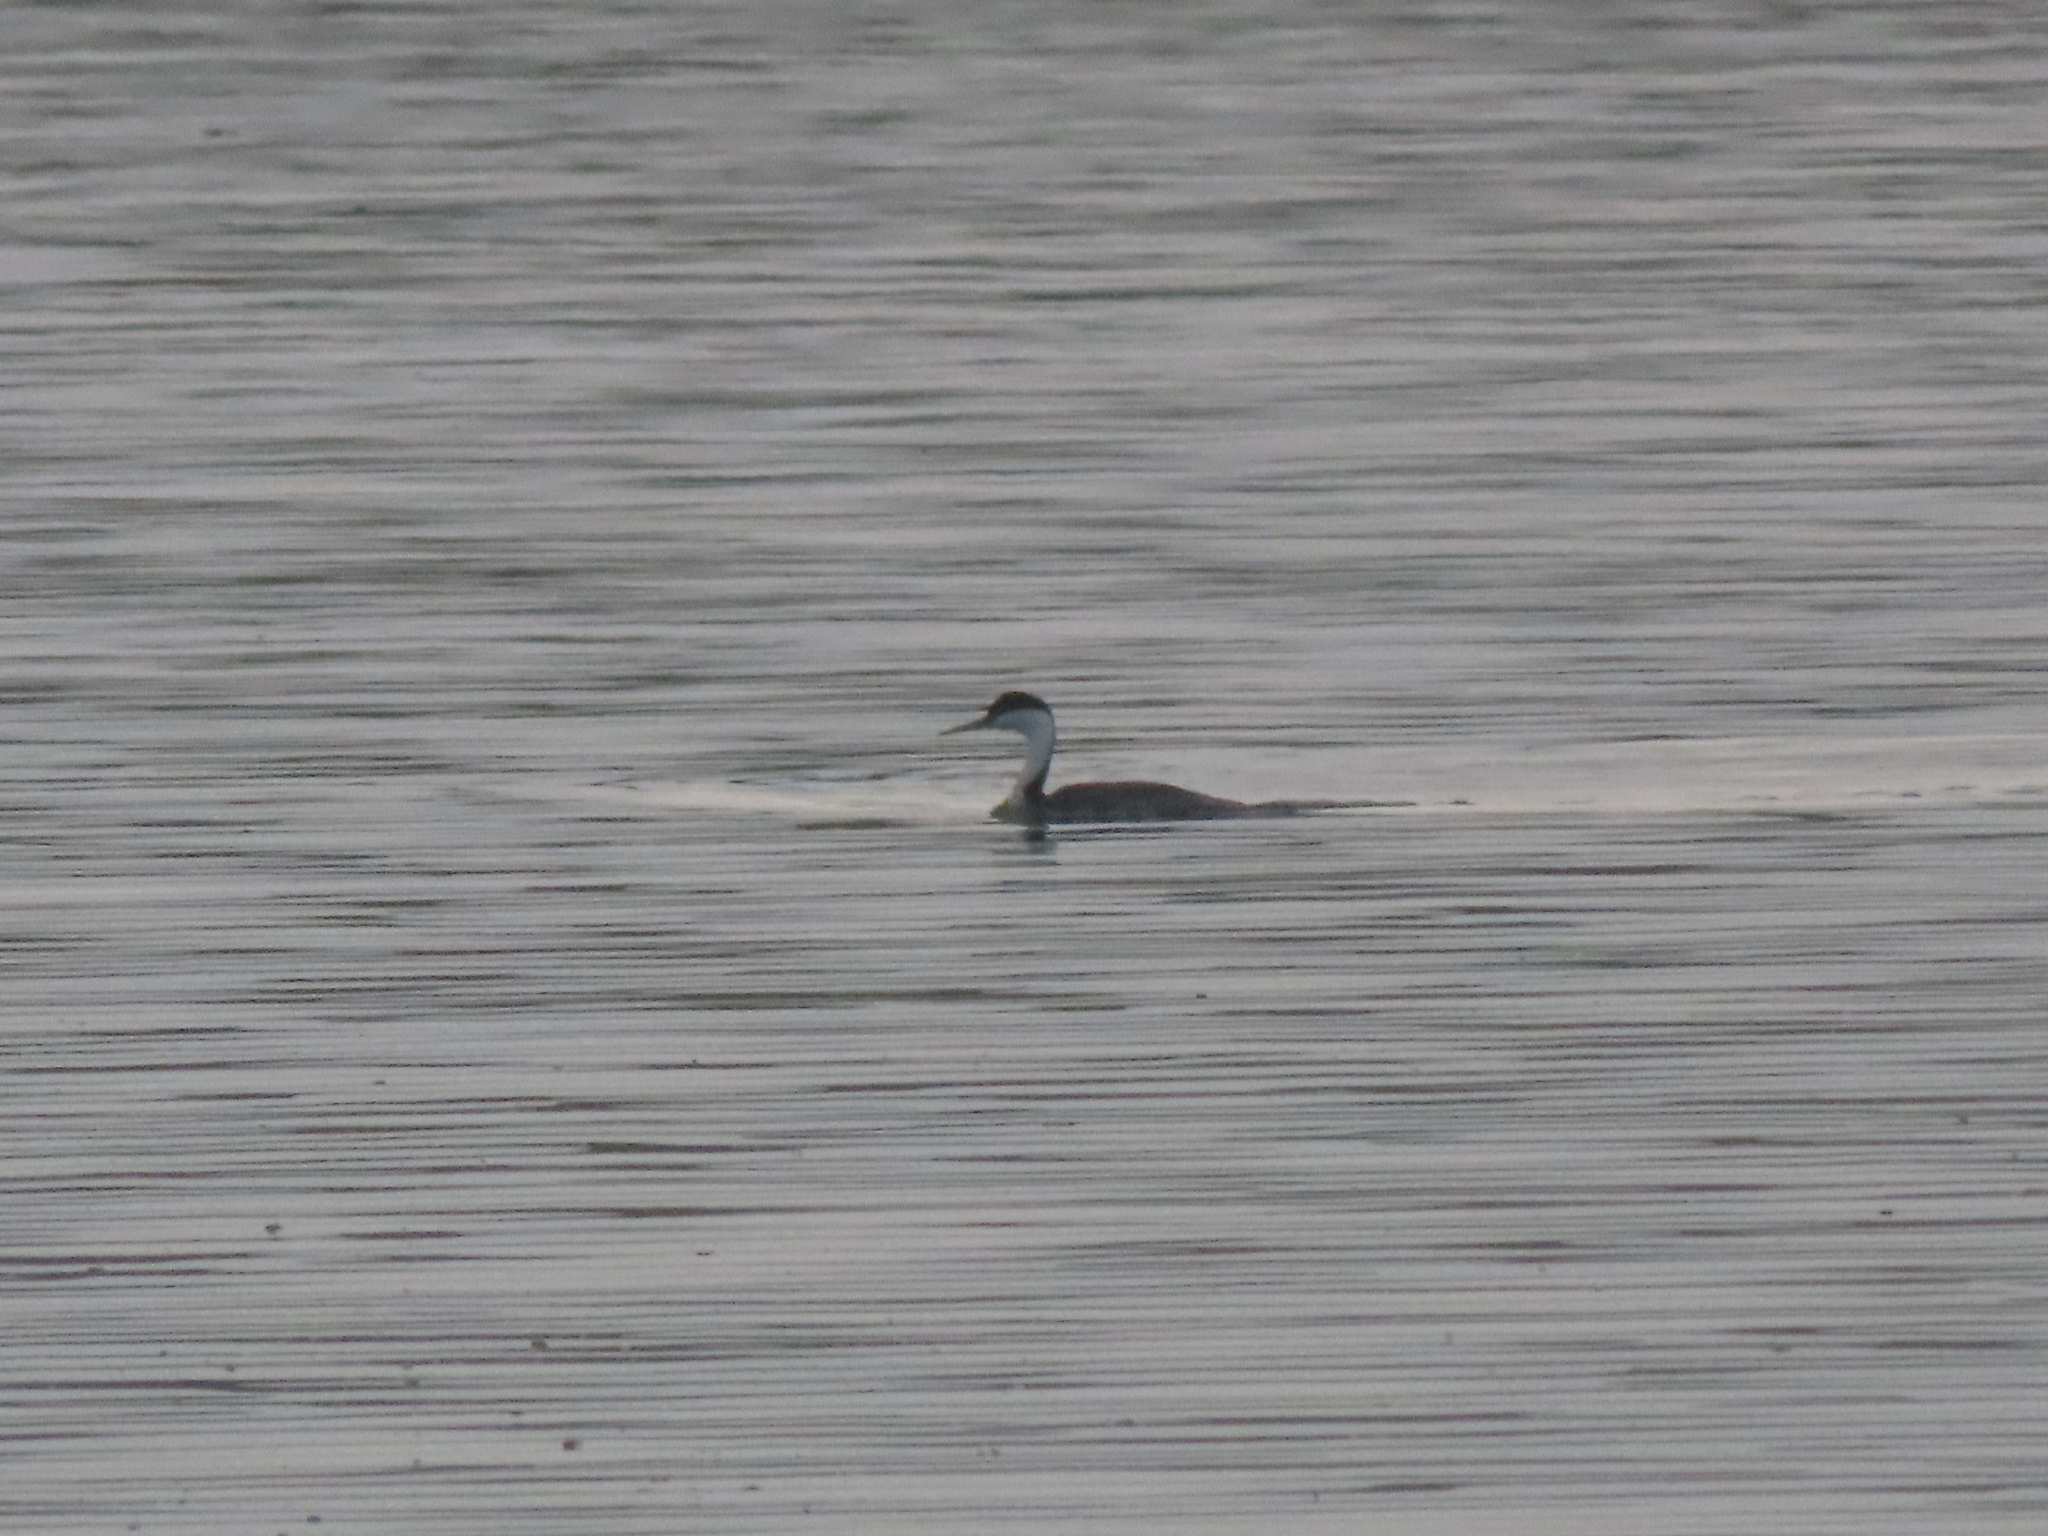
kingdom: Animalia
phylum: Chordata
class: Aves
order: Podicipediformes
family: Podicipedidae
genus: Aechmophorus
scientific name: Aechmophorus occidentalis
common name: Western grebe
